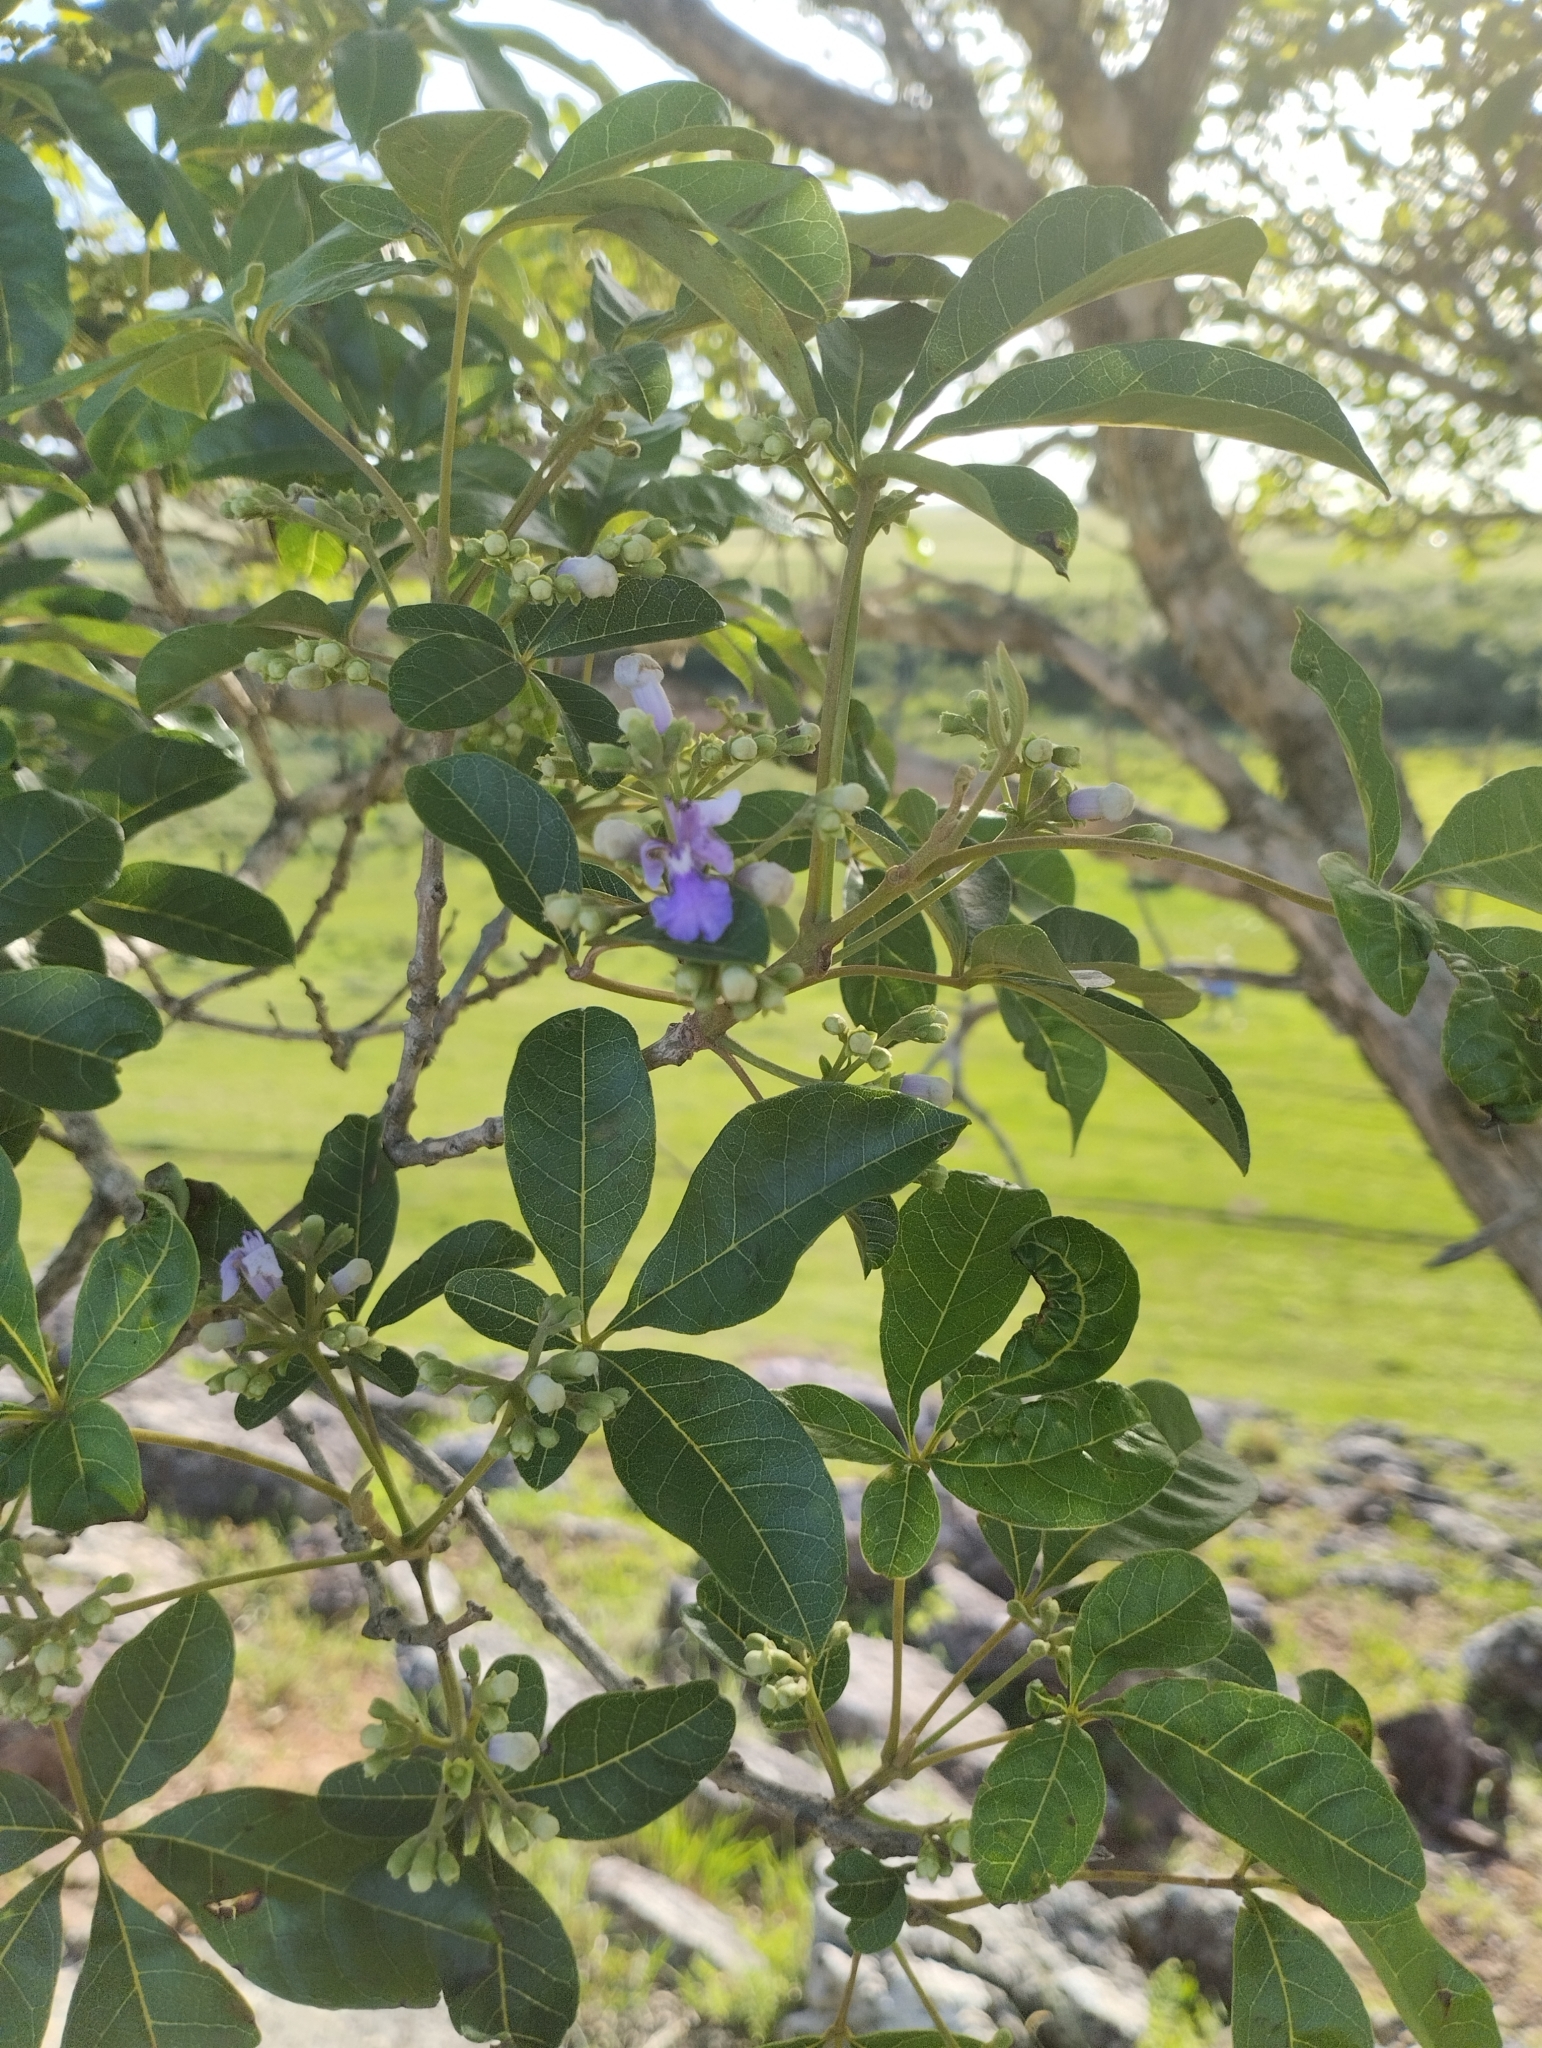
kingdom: Plantae
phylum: Tracheophyta
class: Magnoliopsida
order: Lamiales
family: Lamiaceae
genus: Vitex
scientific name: Vitex megapotamica
